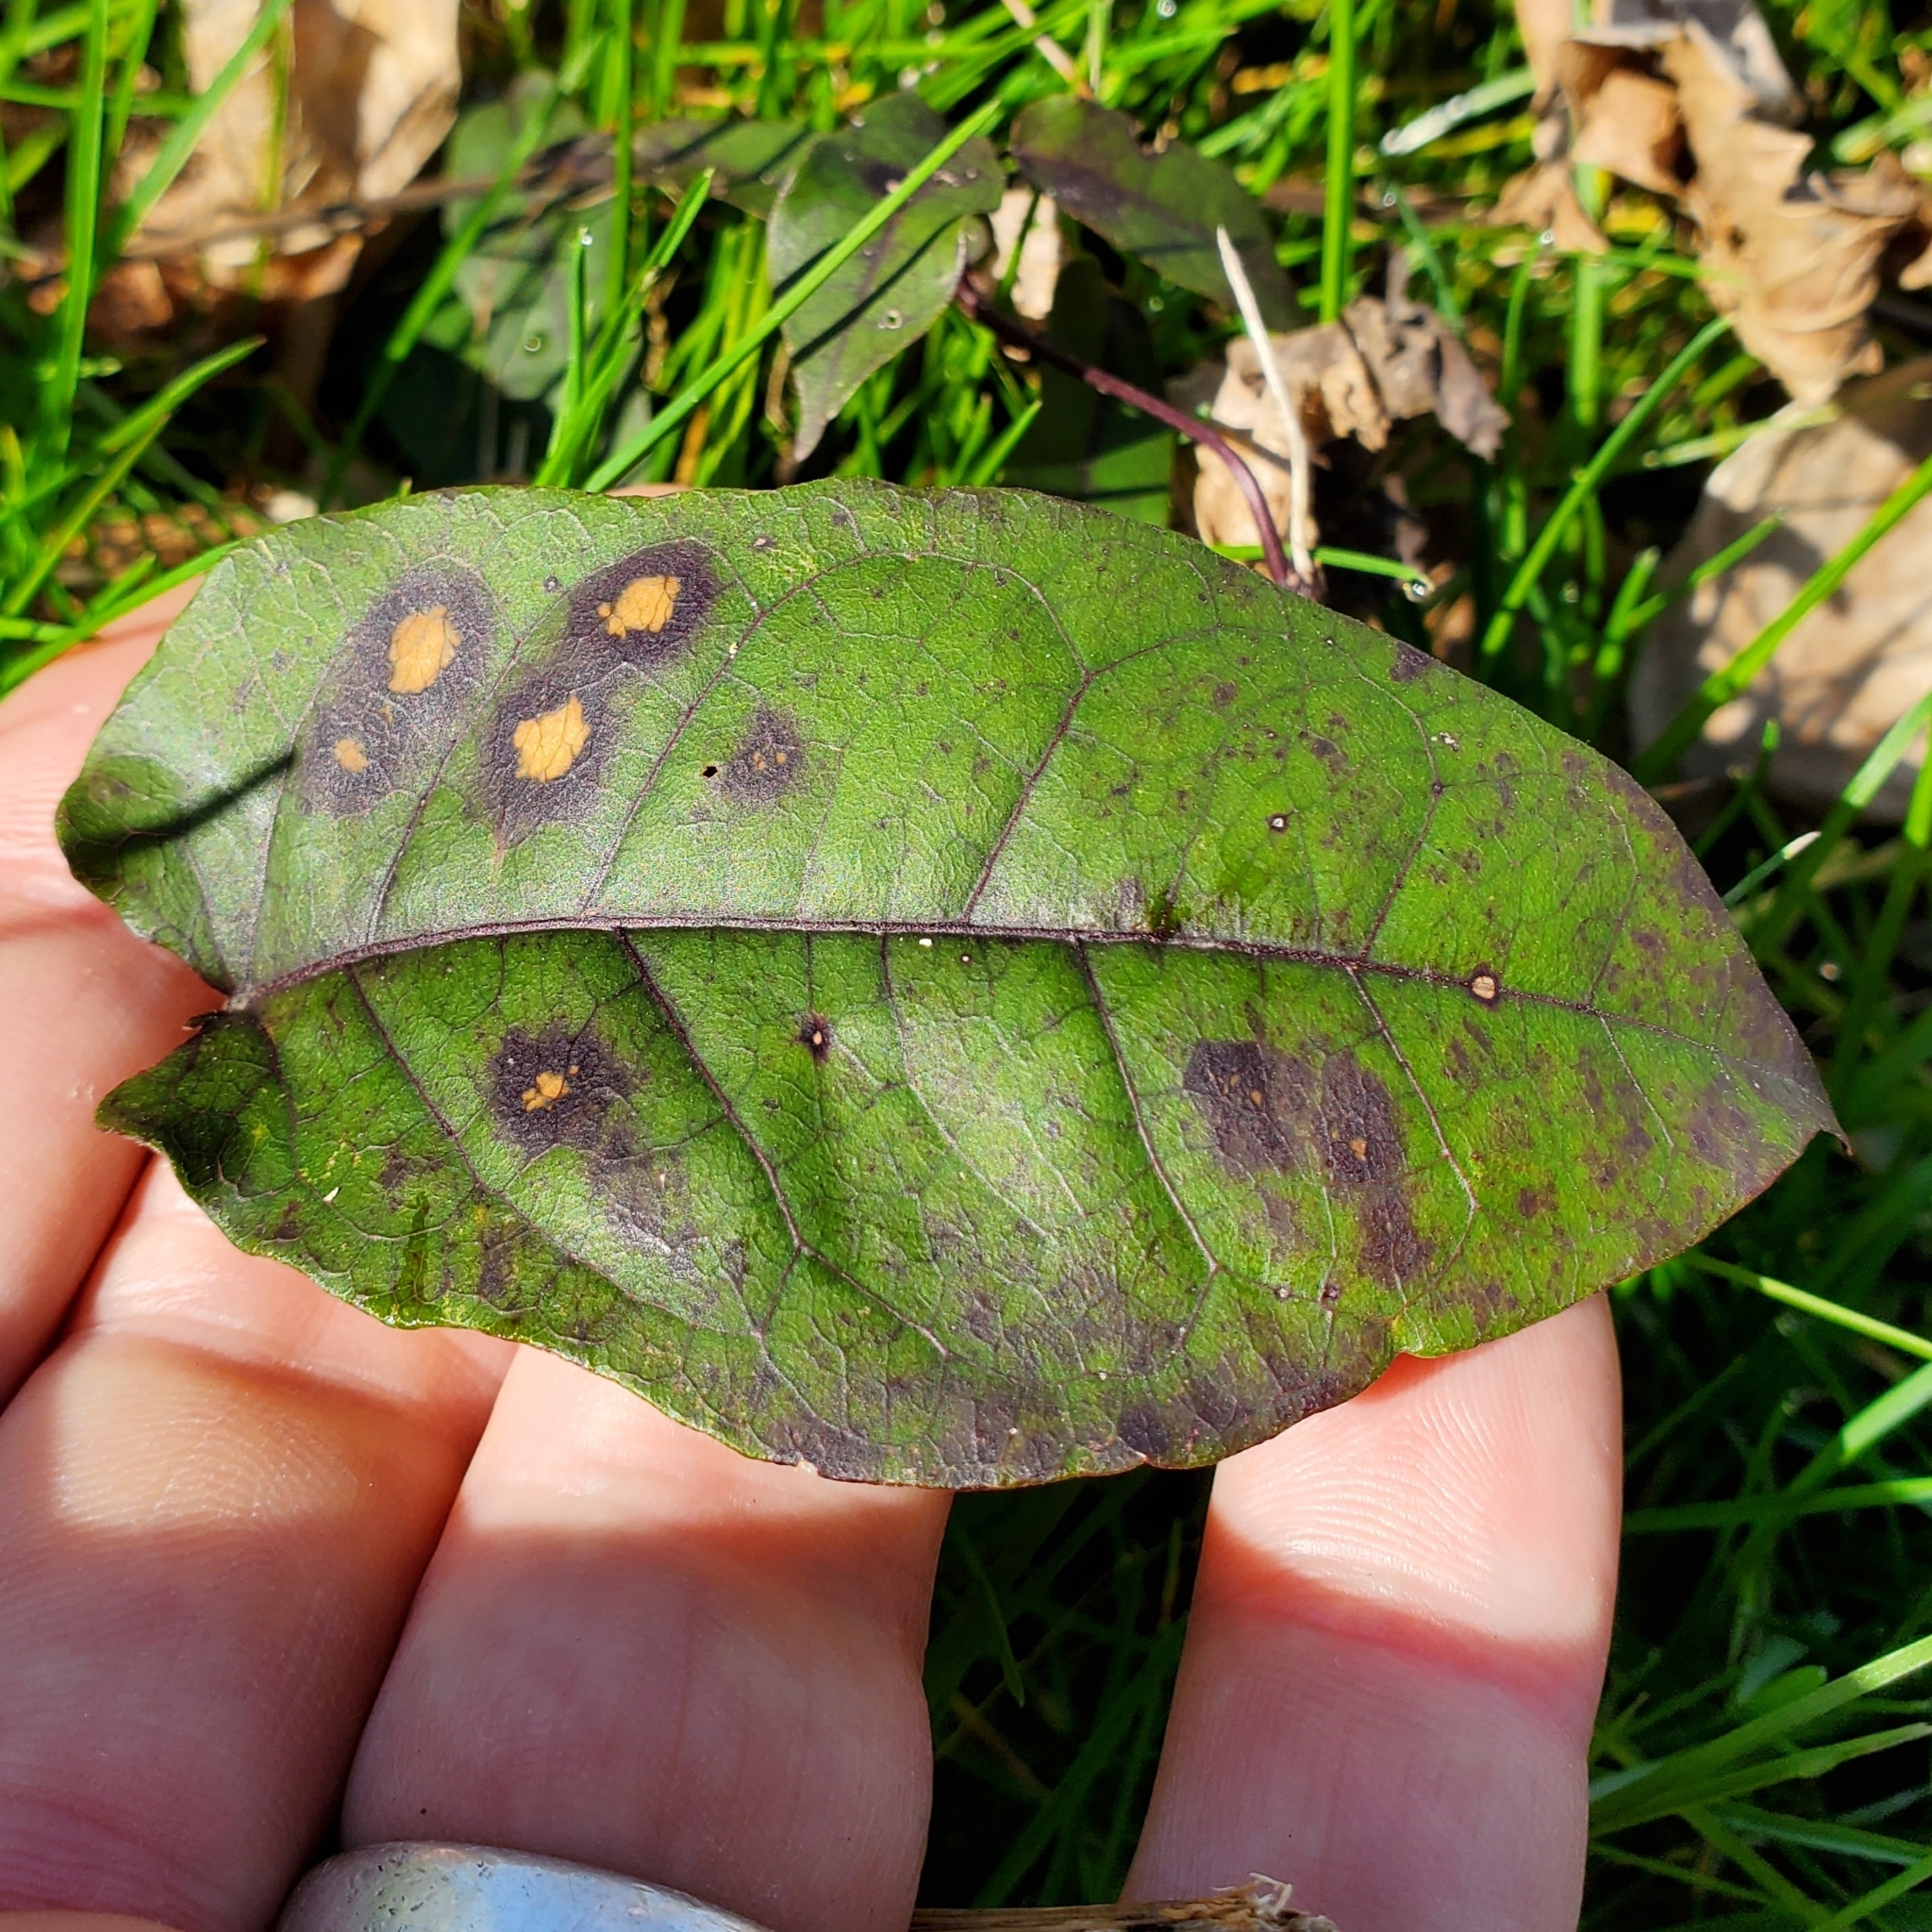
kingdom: Plantae
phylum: Tracheophyta
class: Magnoliopsida
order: Lamiales
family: Bignoniaceae
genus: Bignonia
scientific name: Bignonia capreolata
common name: Crossvine
